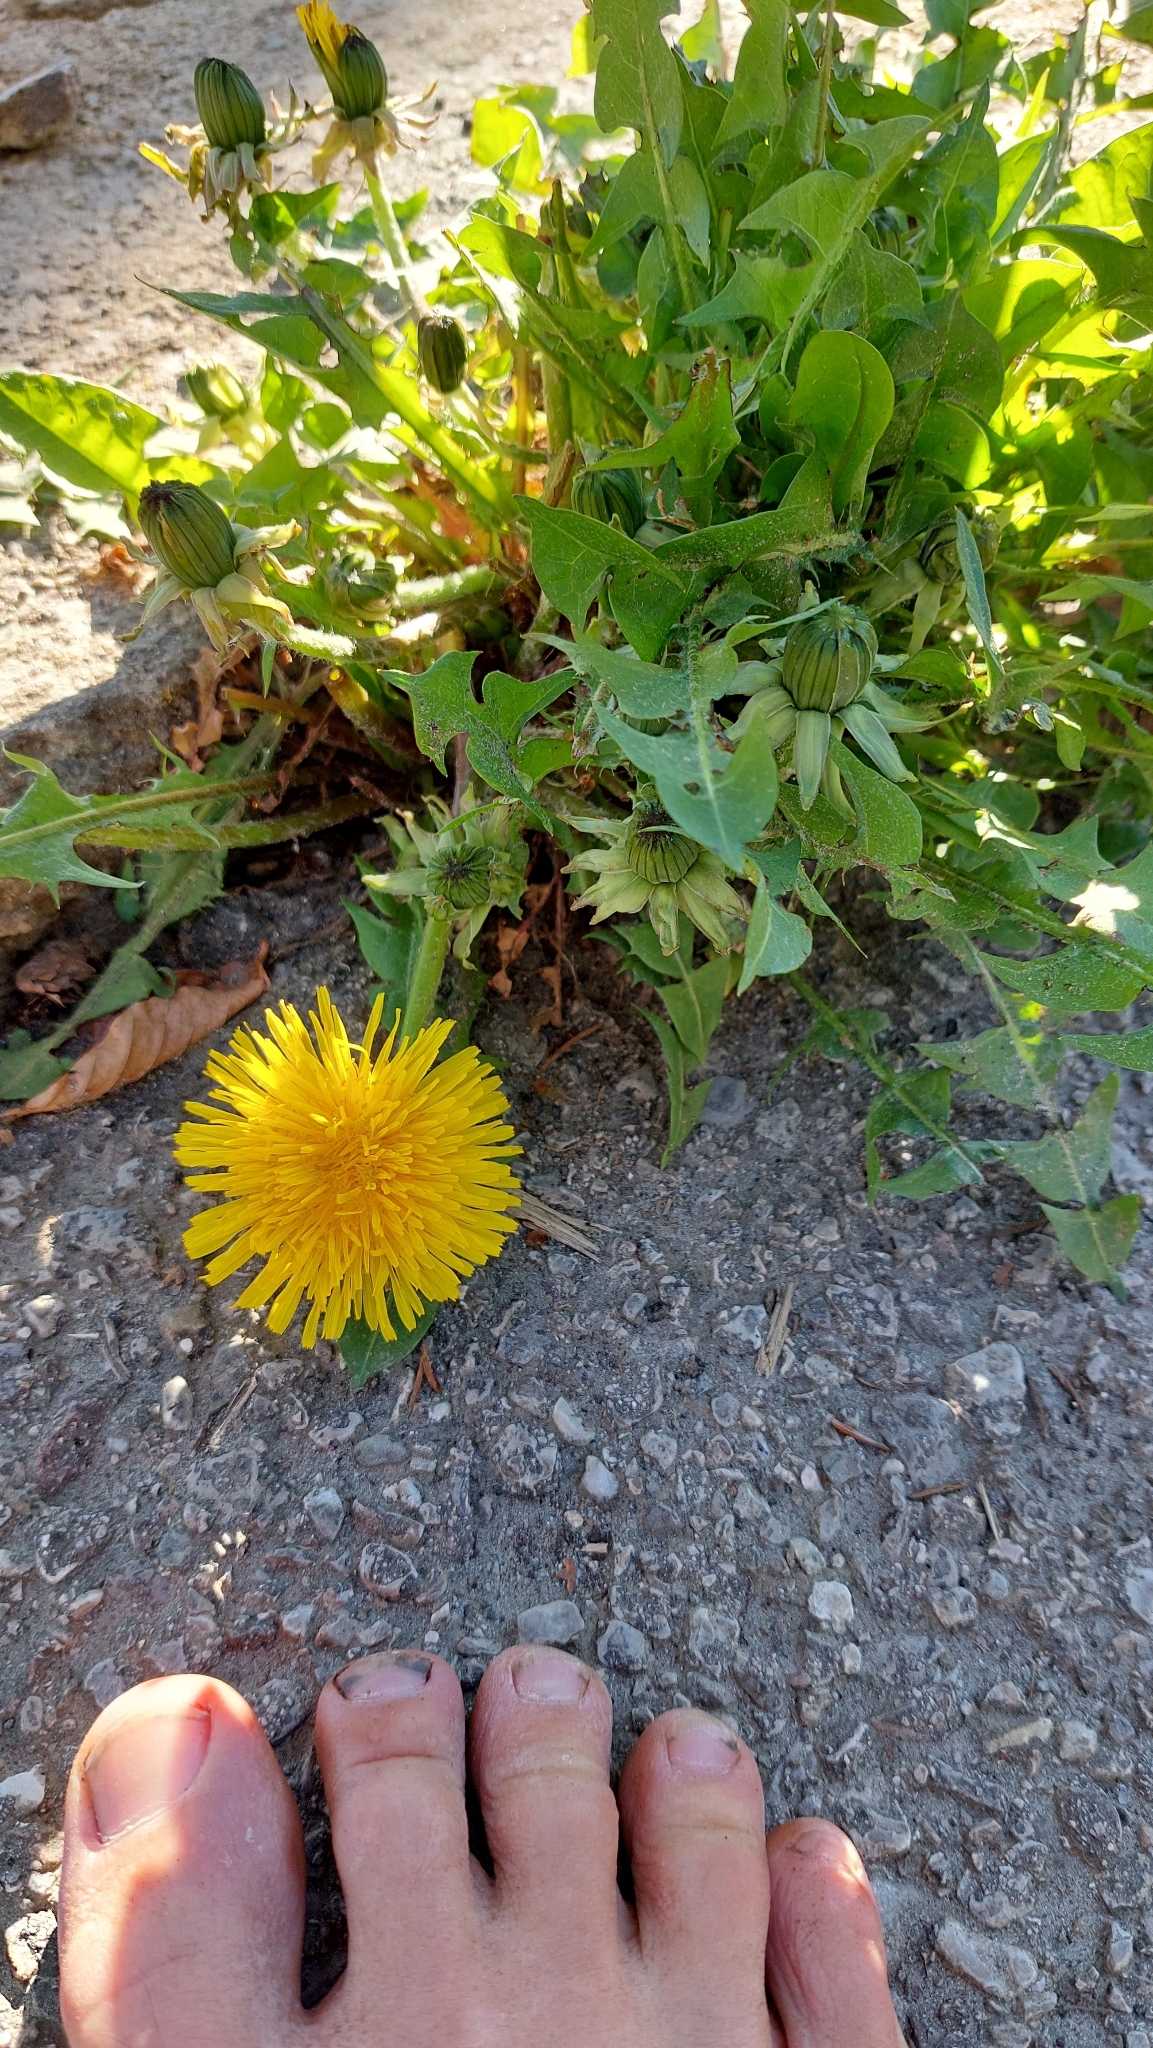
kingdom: Plantae
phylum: Tracheophyta
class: Magnoliopsida
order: Asterales
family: Asteraceae
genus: Taraxacum
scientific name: Taraxacum officinale
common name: Common dandelion
